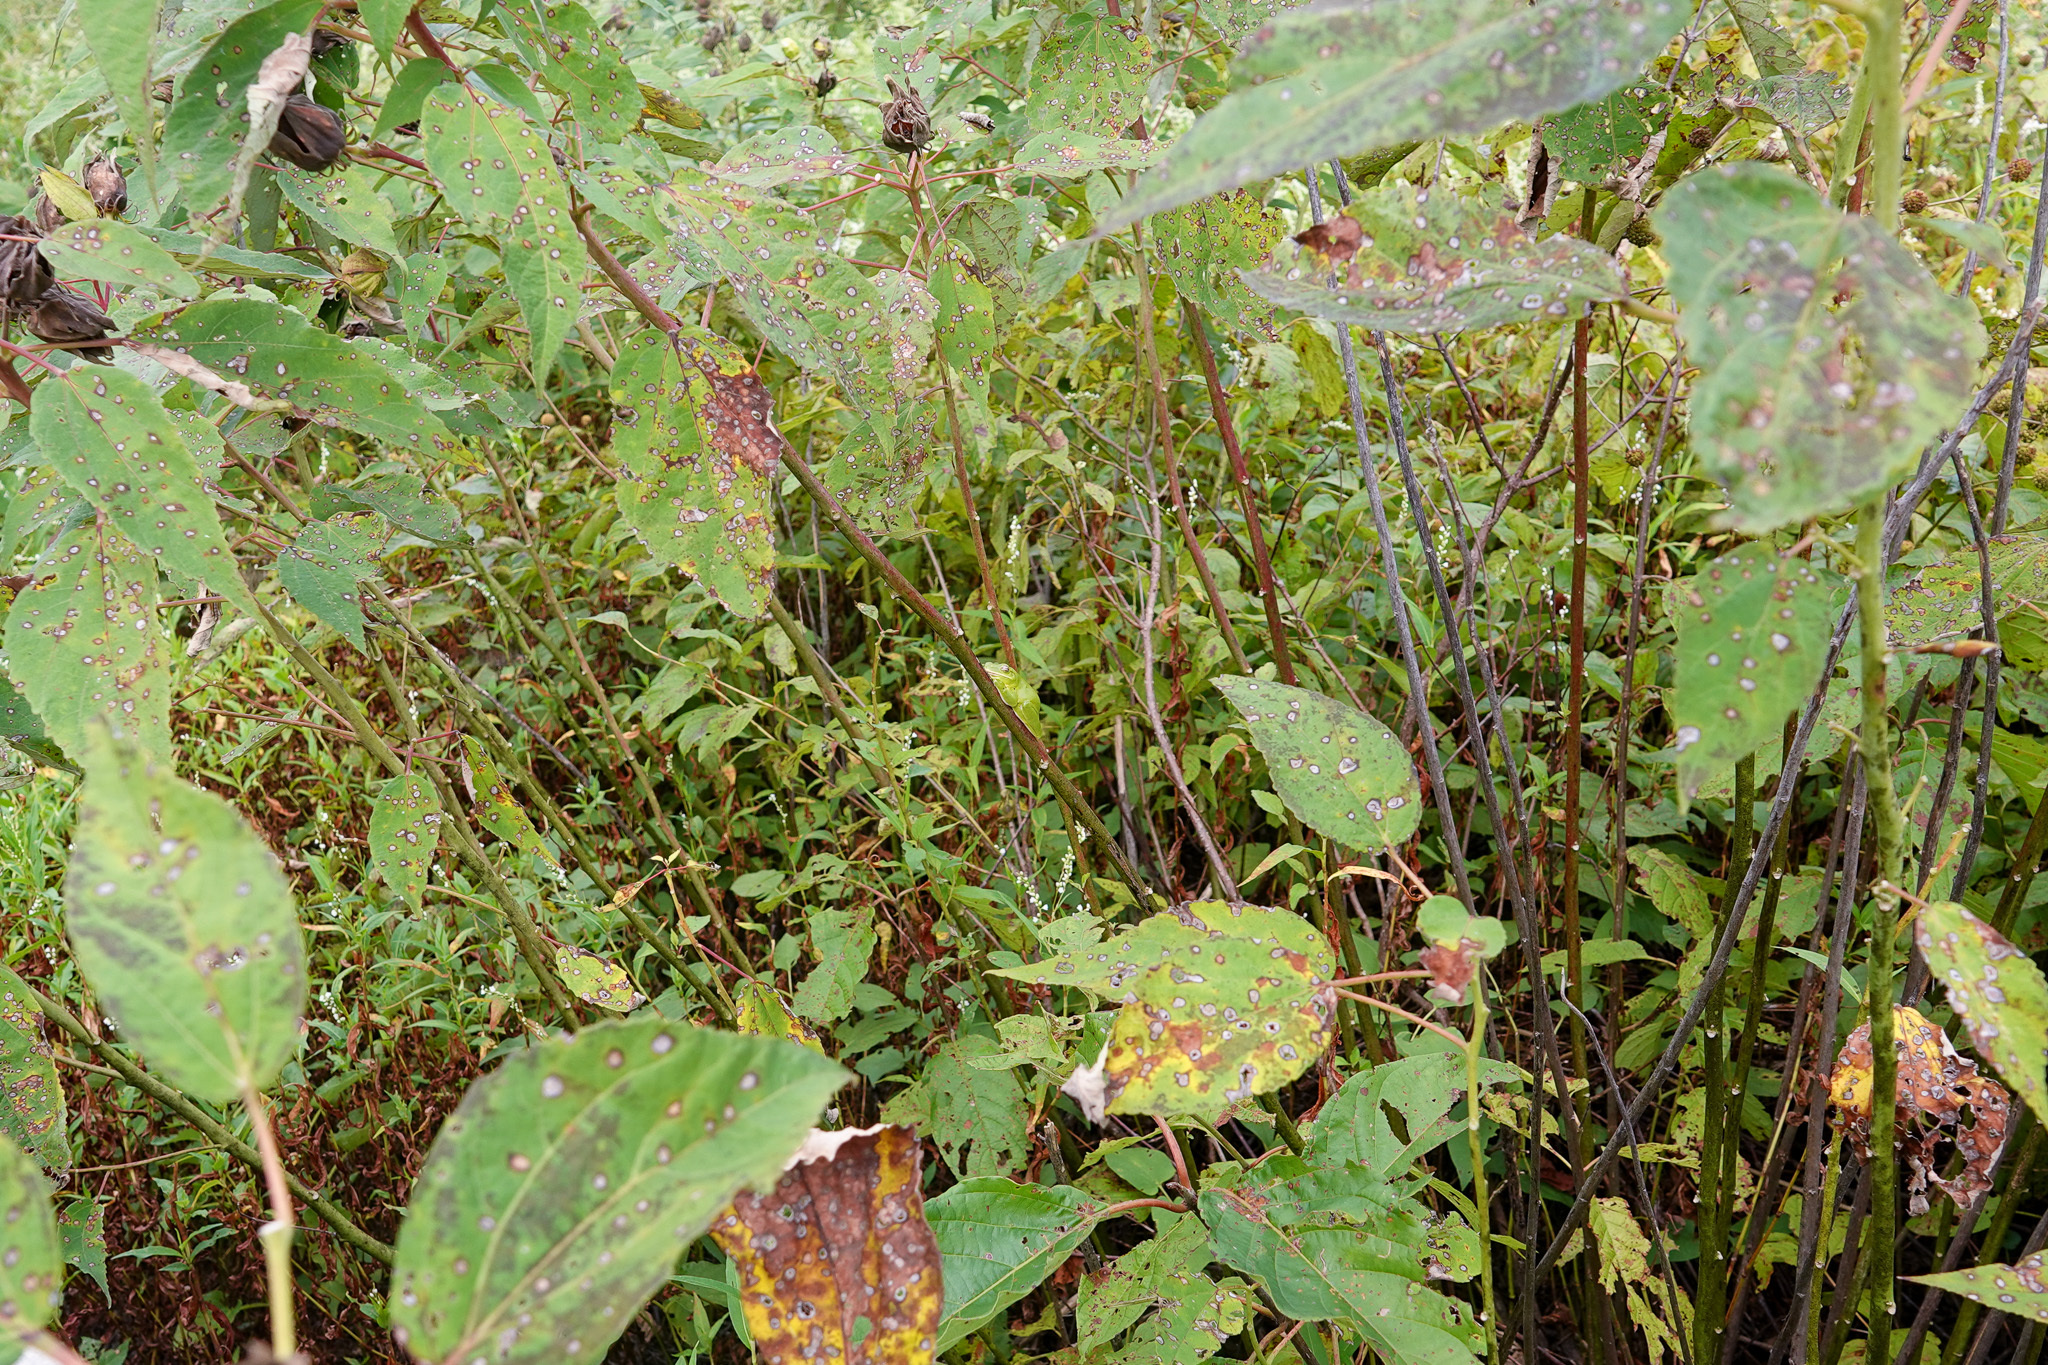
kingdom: Animalia
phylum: Chordata
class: Amphibia
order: Anura
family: Hylidae
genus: Dryophytes
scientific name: Dryophytes cinereus
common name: Green treefrog
